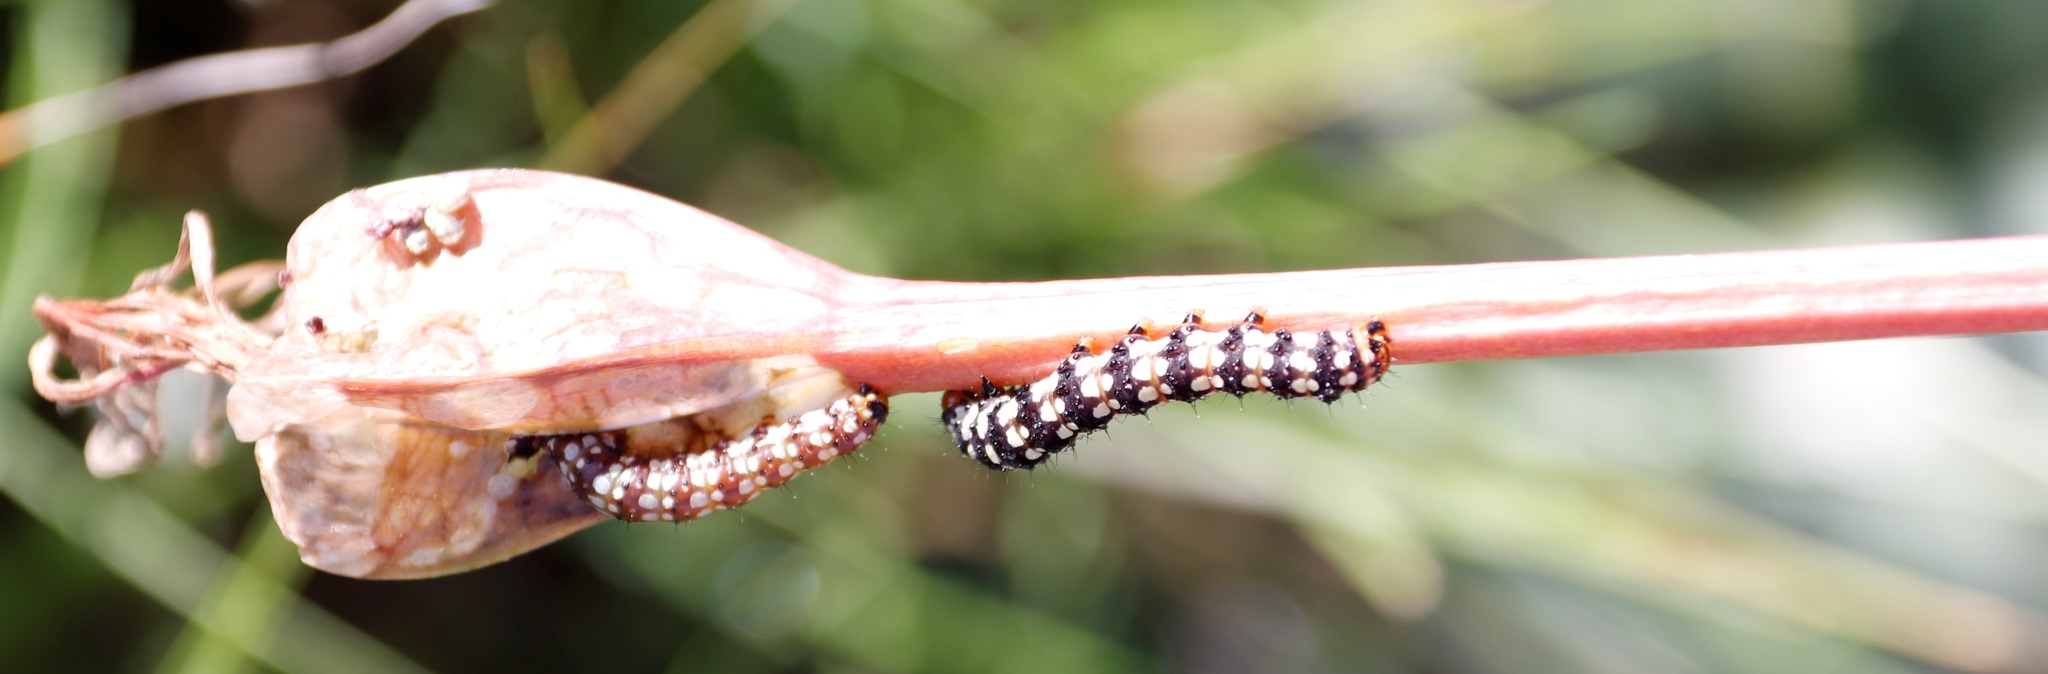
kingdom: Animalia
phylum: Arthropoda
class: Insecta
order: Lepidoptera
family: Noctuidae
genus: Brithys
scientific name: Brithys crini
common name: Kew arches
